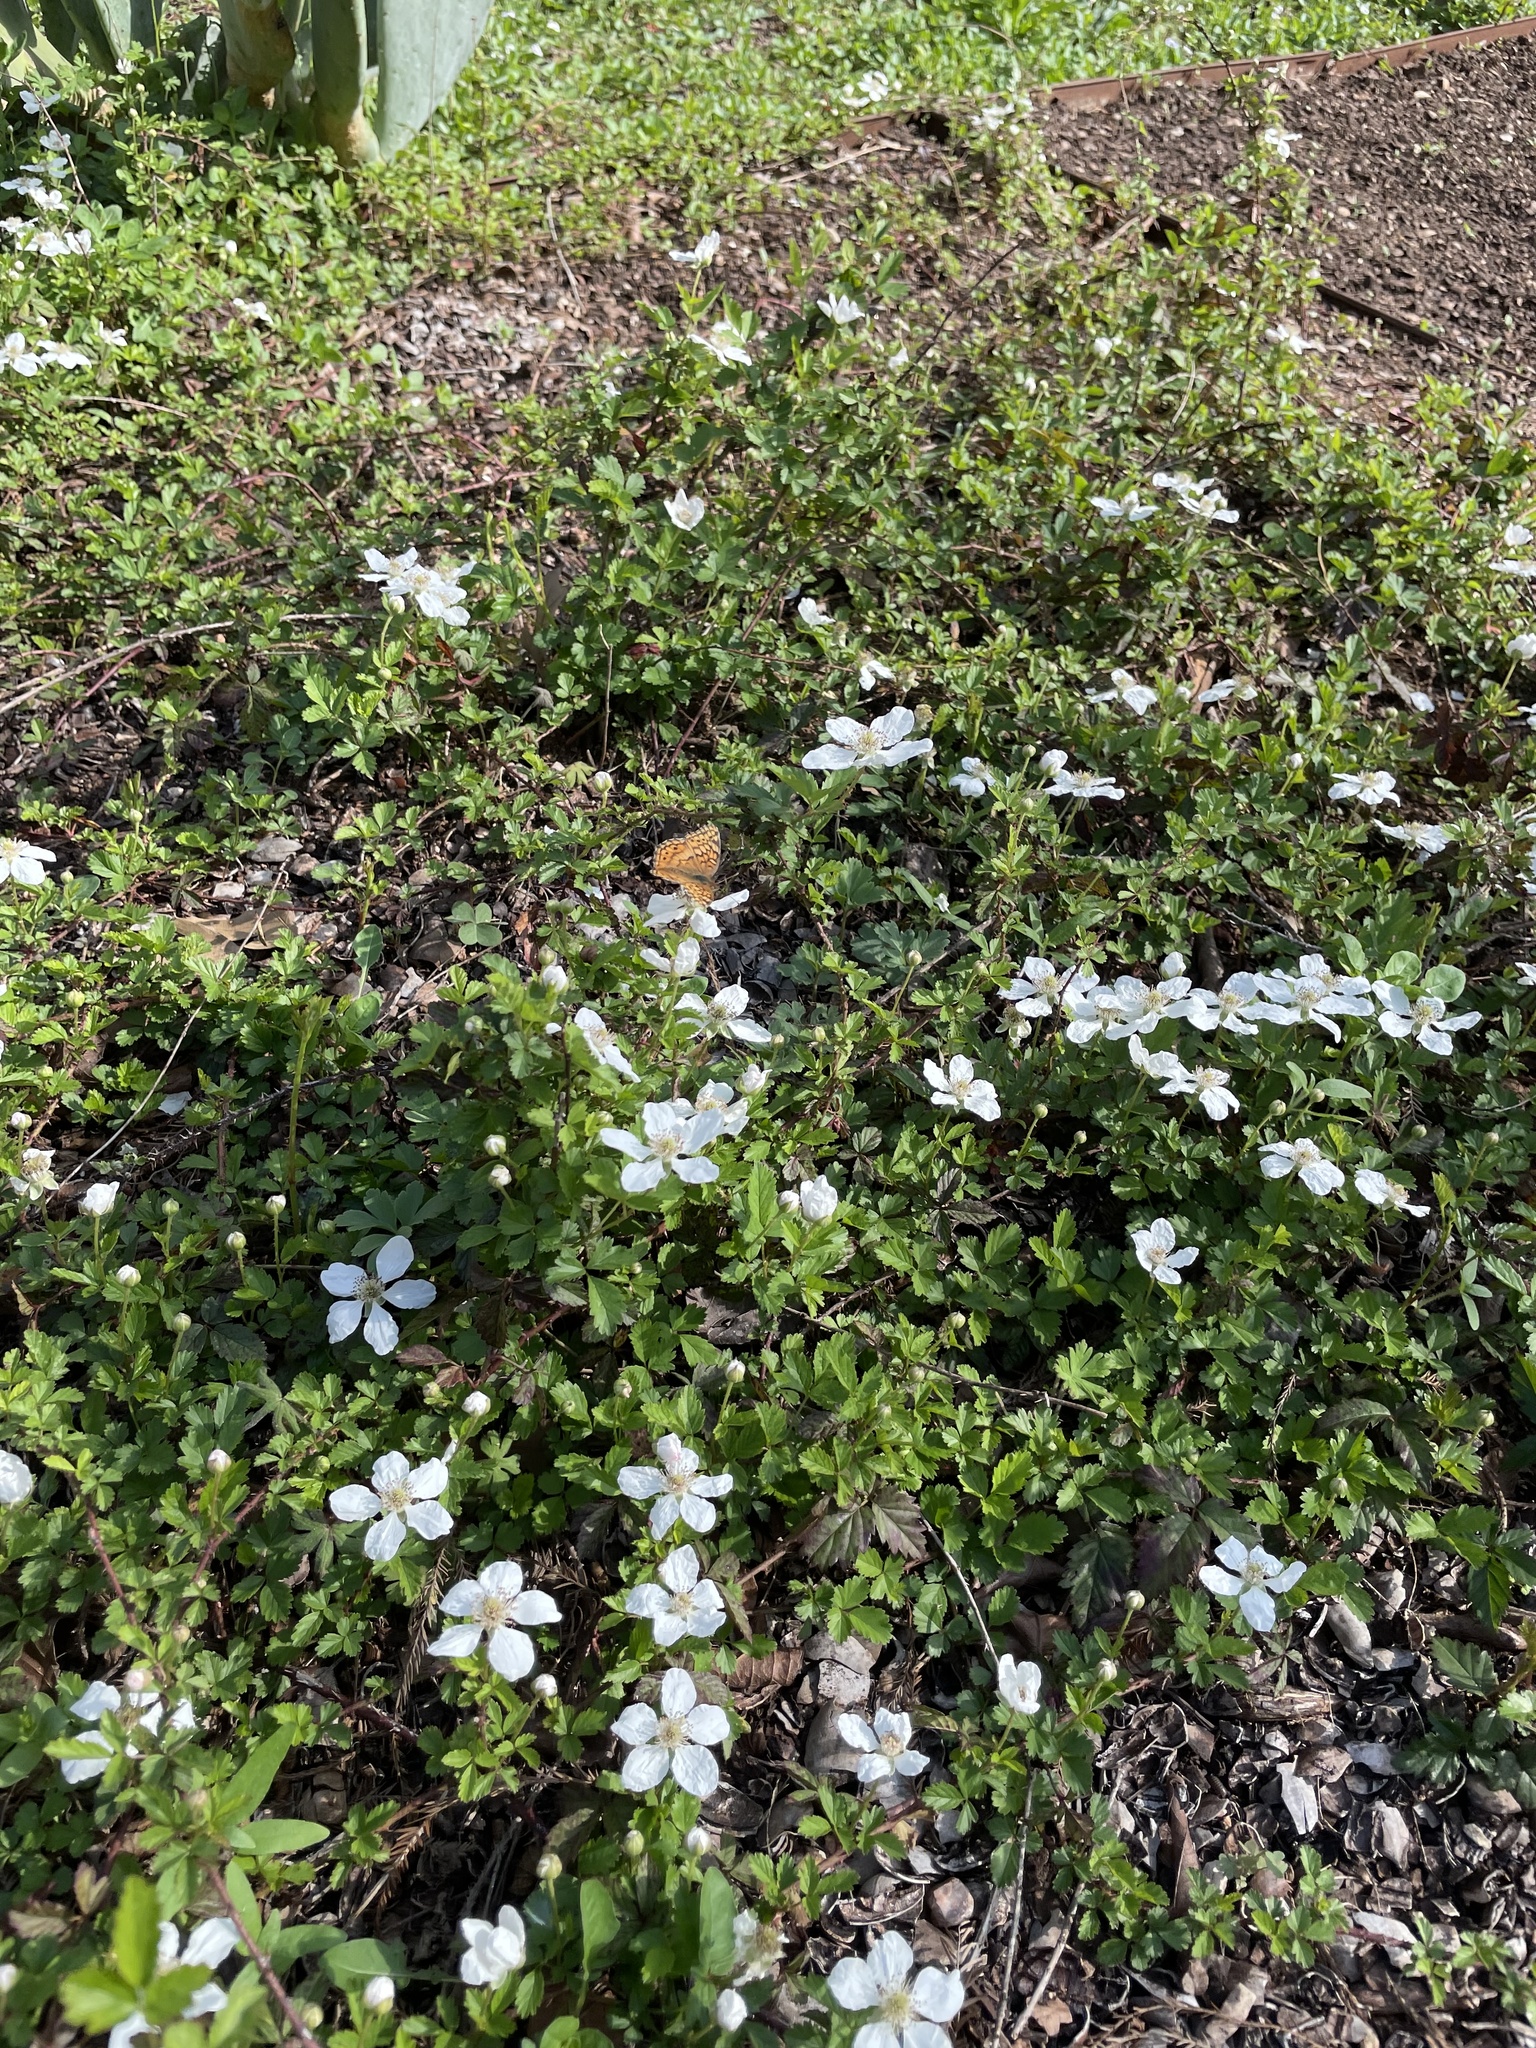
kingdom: Animalia
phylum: Arthropoda
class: Insecta
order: Lepidoptera
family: Nymphalidae
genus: Euptoieta
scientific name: Euptoieta claudia
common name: Variegated fritillary
